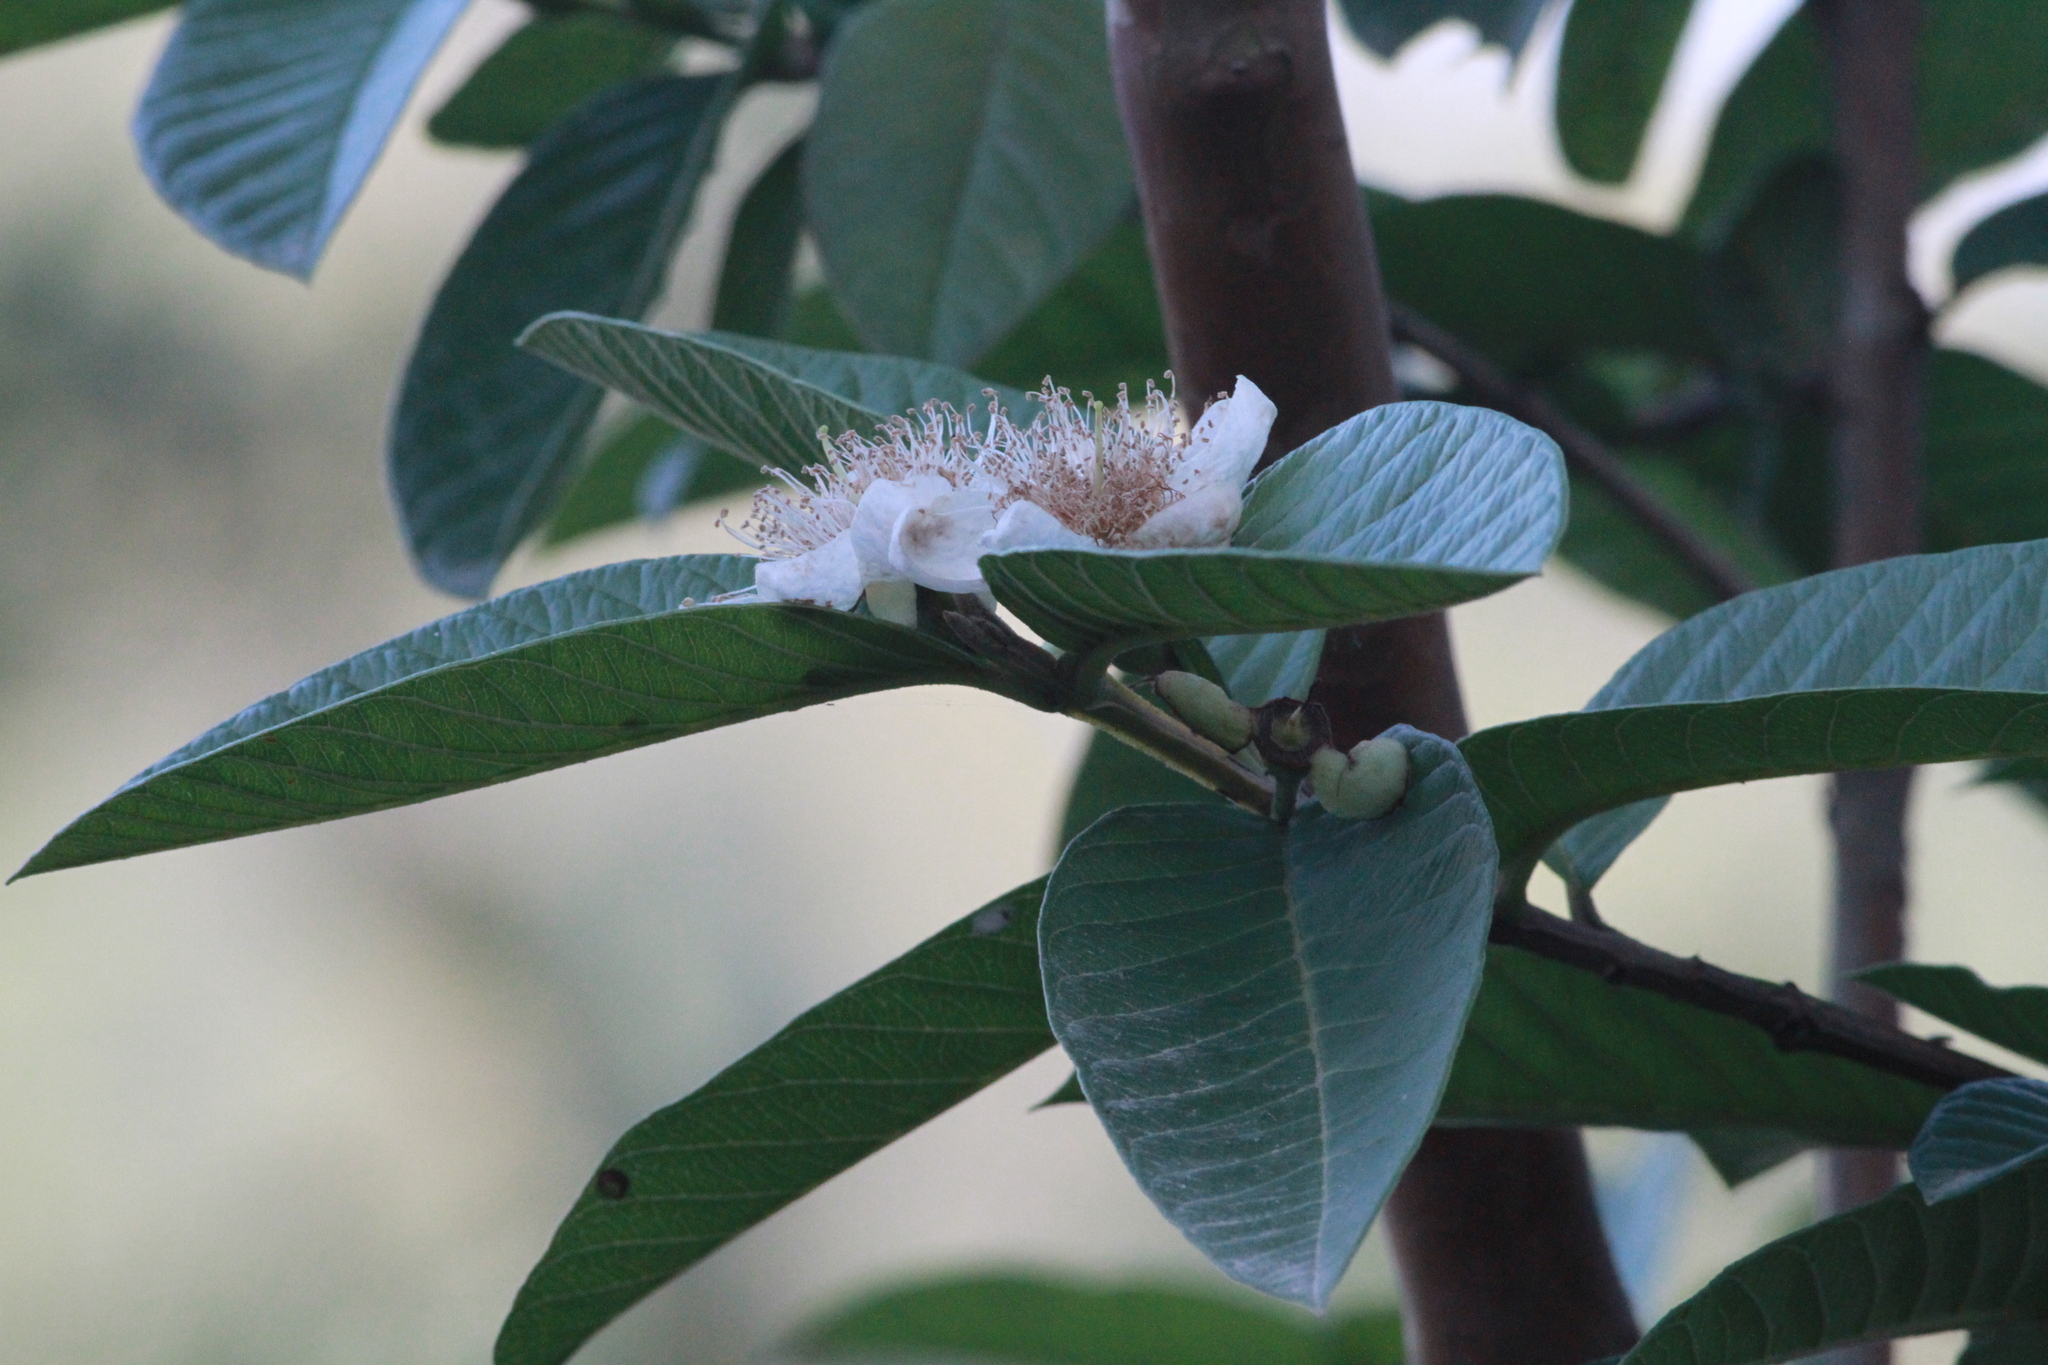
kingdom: Plantae
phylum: Tracheophyta
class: Magnoliopsida
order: Myrtales
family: Myrtaceae
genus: Psidium
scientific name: Psidium guajava
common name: Guava
